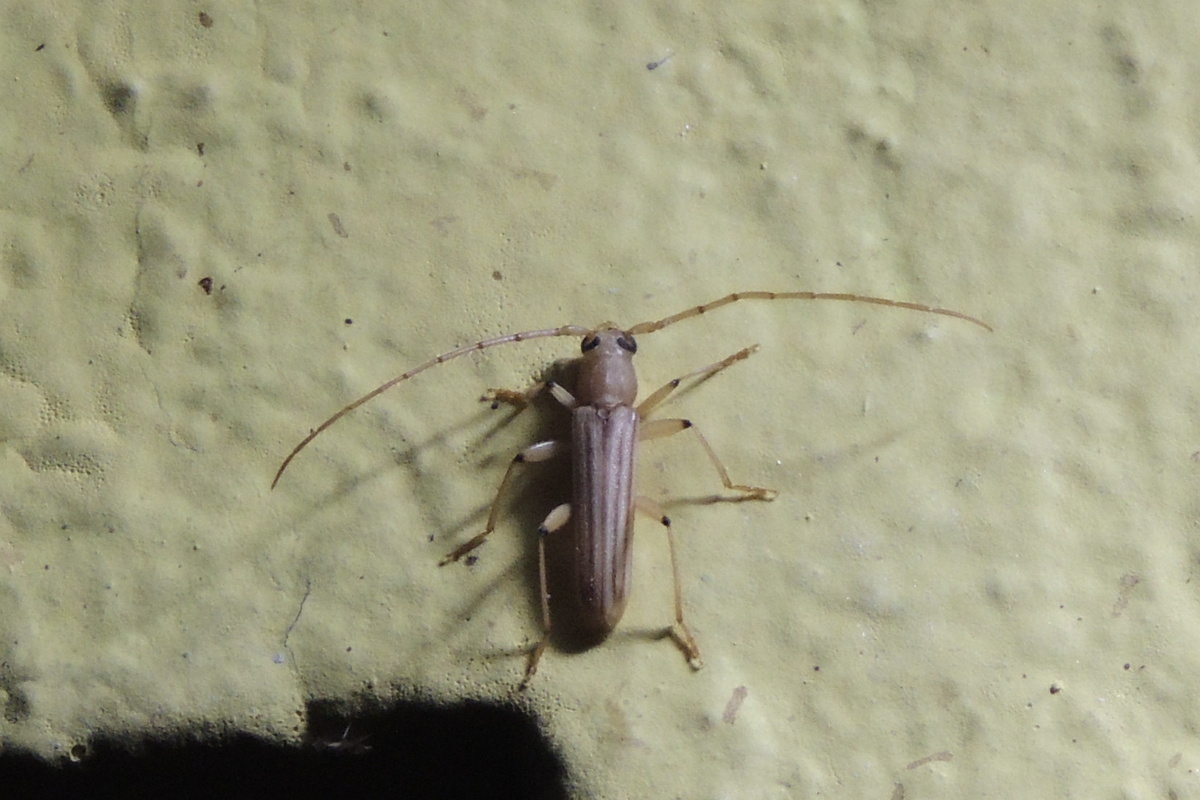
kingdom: Animalia
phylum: Arthropoda
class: Insecta
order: Coleoptera
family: Cerambycidae
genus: Malacopterus
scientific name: Malacopterus tenellus
